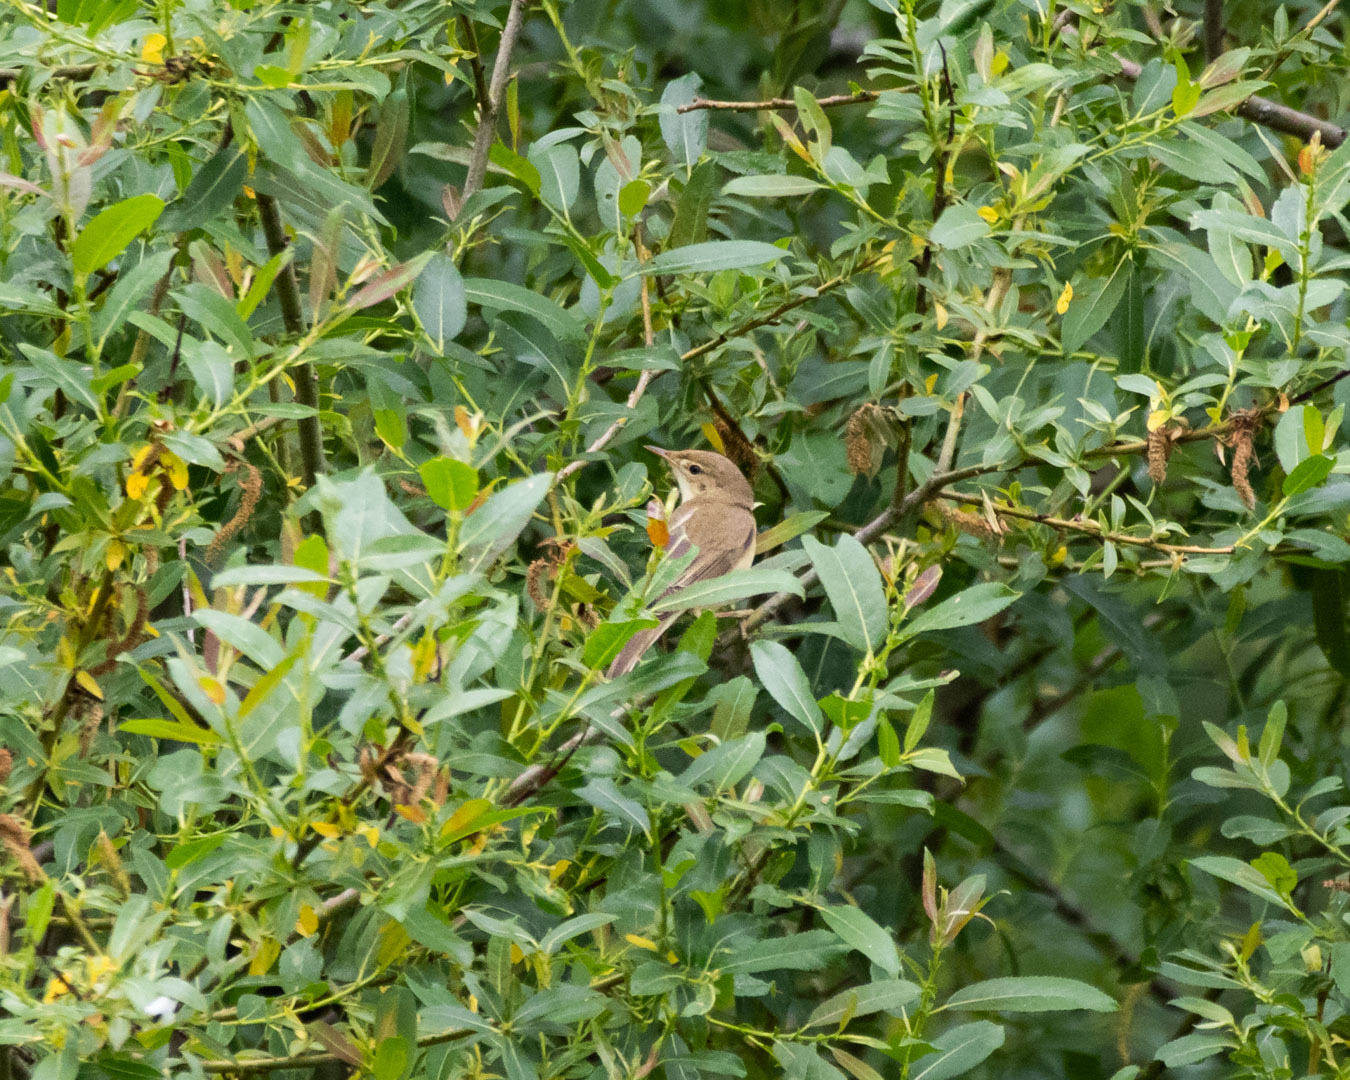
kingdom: Animalia
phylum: Chordata
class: Aves
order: Passeriformes
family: Acrocephalidae
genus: Acrocephalus
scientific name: Acrocephalus palustris
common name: Marsh warbler
